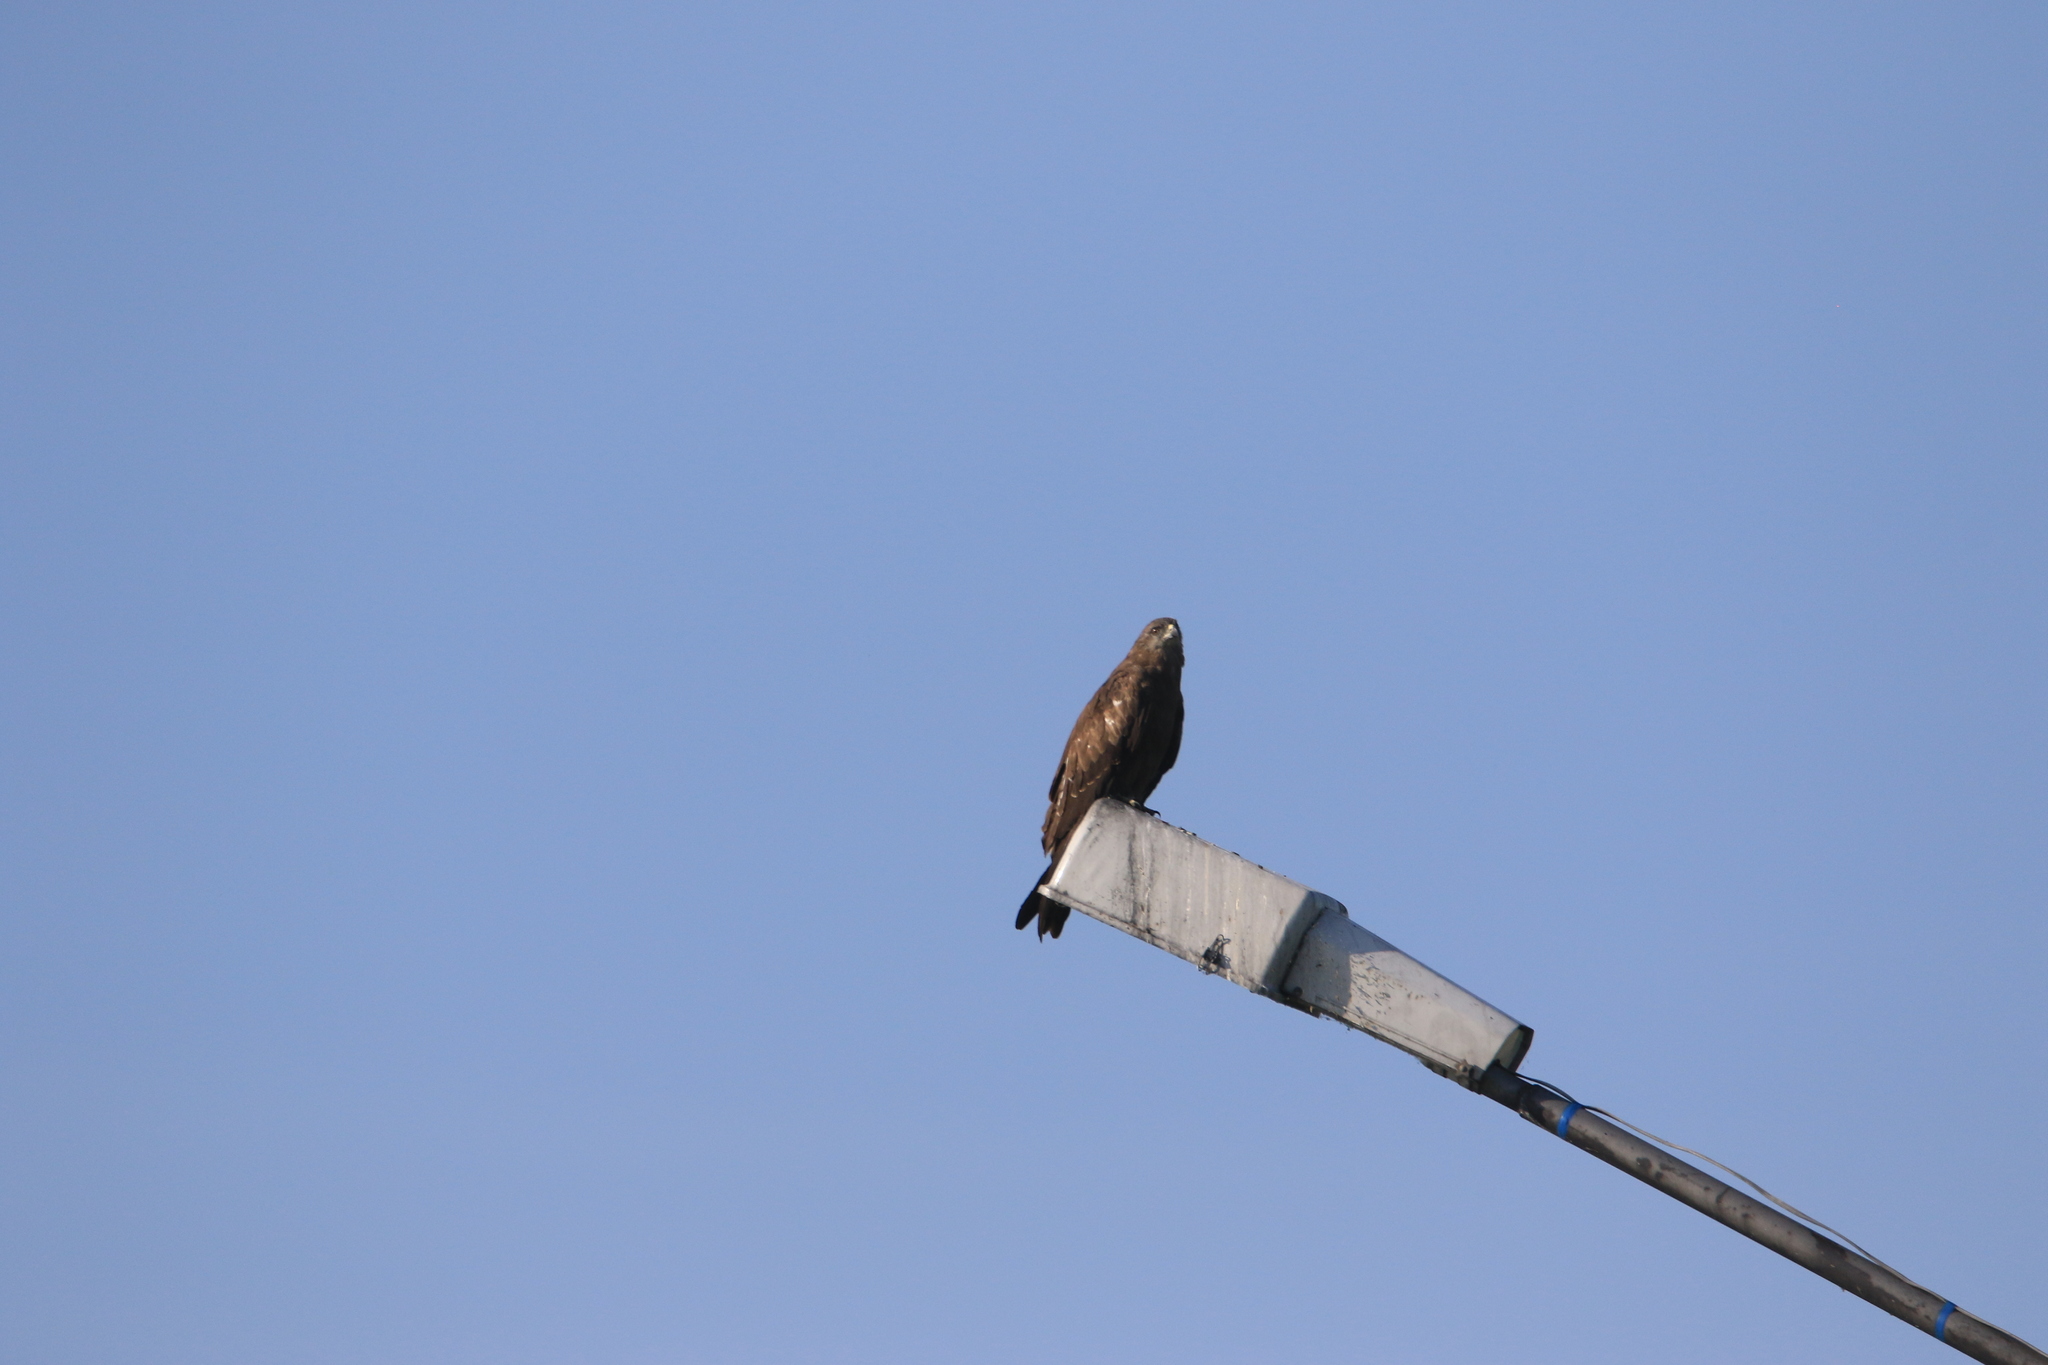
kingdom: Animalia
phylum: Chordata
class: Aves
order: Accipitriformes
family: Accipitridae
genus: Milvus
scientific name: Milvus migrans
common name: Black kite
